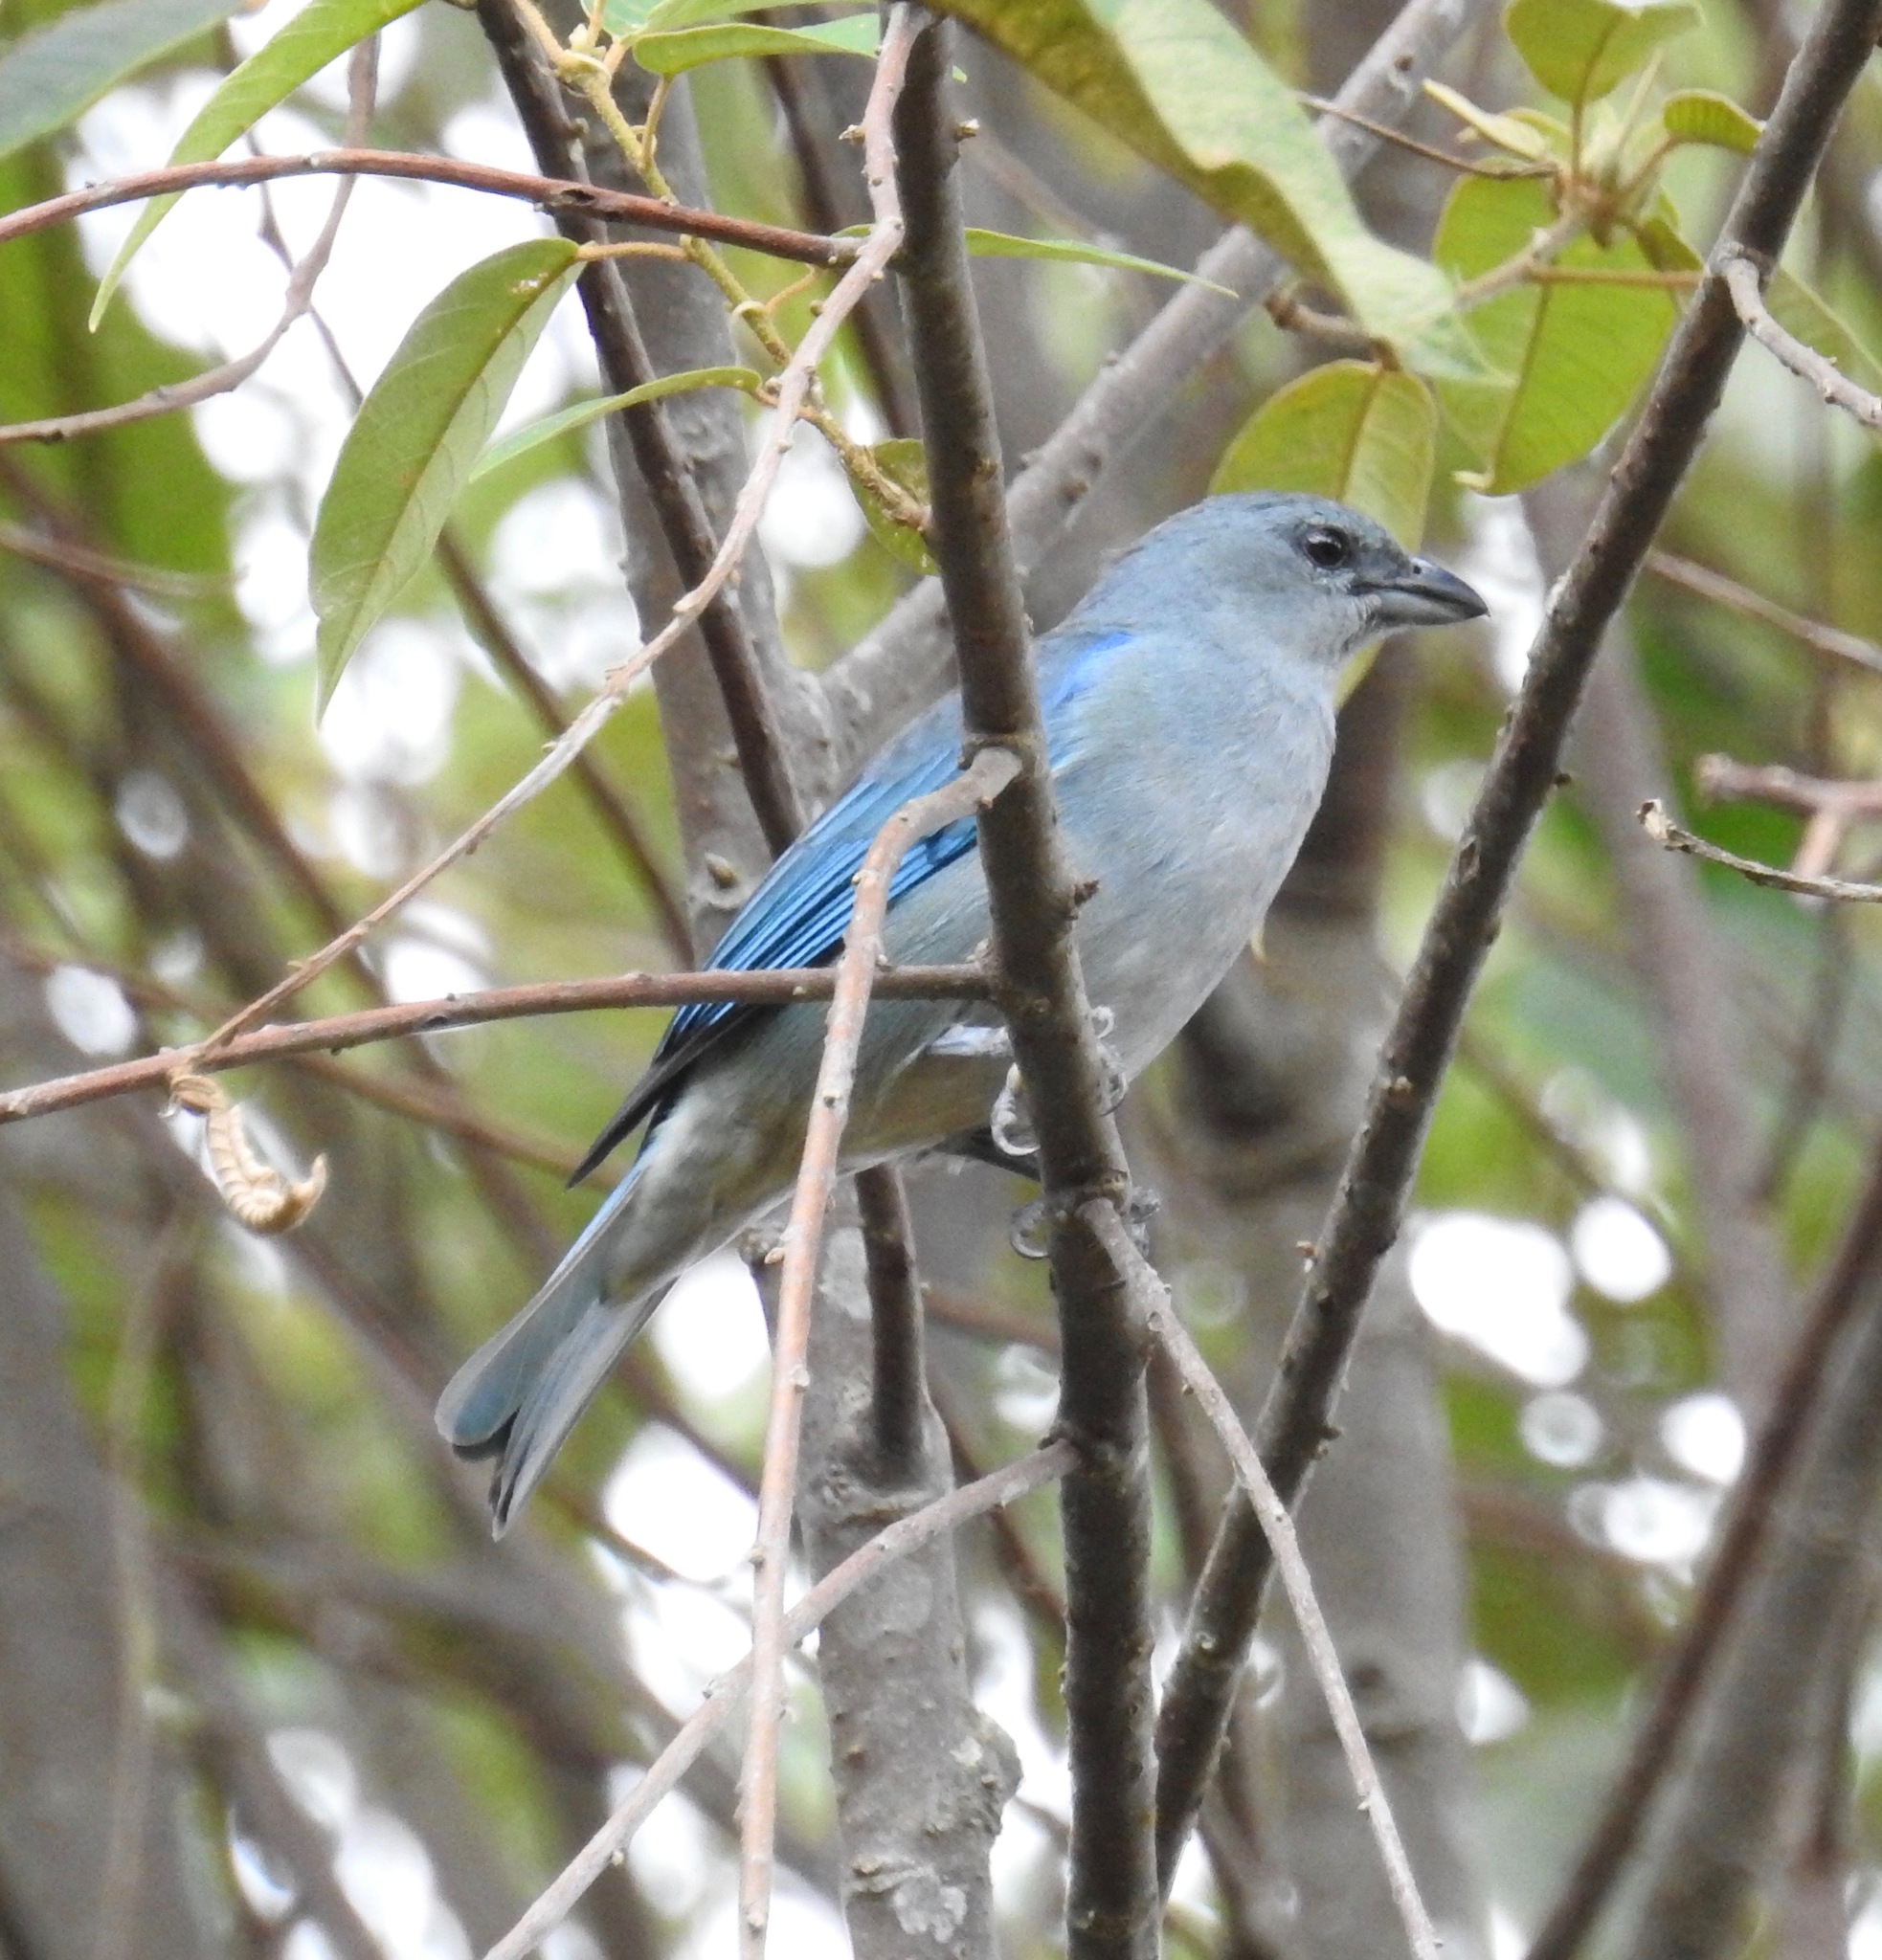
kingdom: Animalia
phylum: Chordata
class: Aves
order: Passeriformes
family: Thraupidae
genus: Thraupis
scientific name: Thraupis cyanoptera
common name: Azure-shouldered tanager
